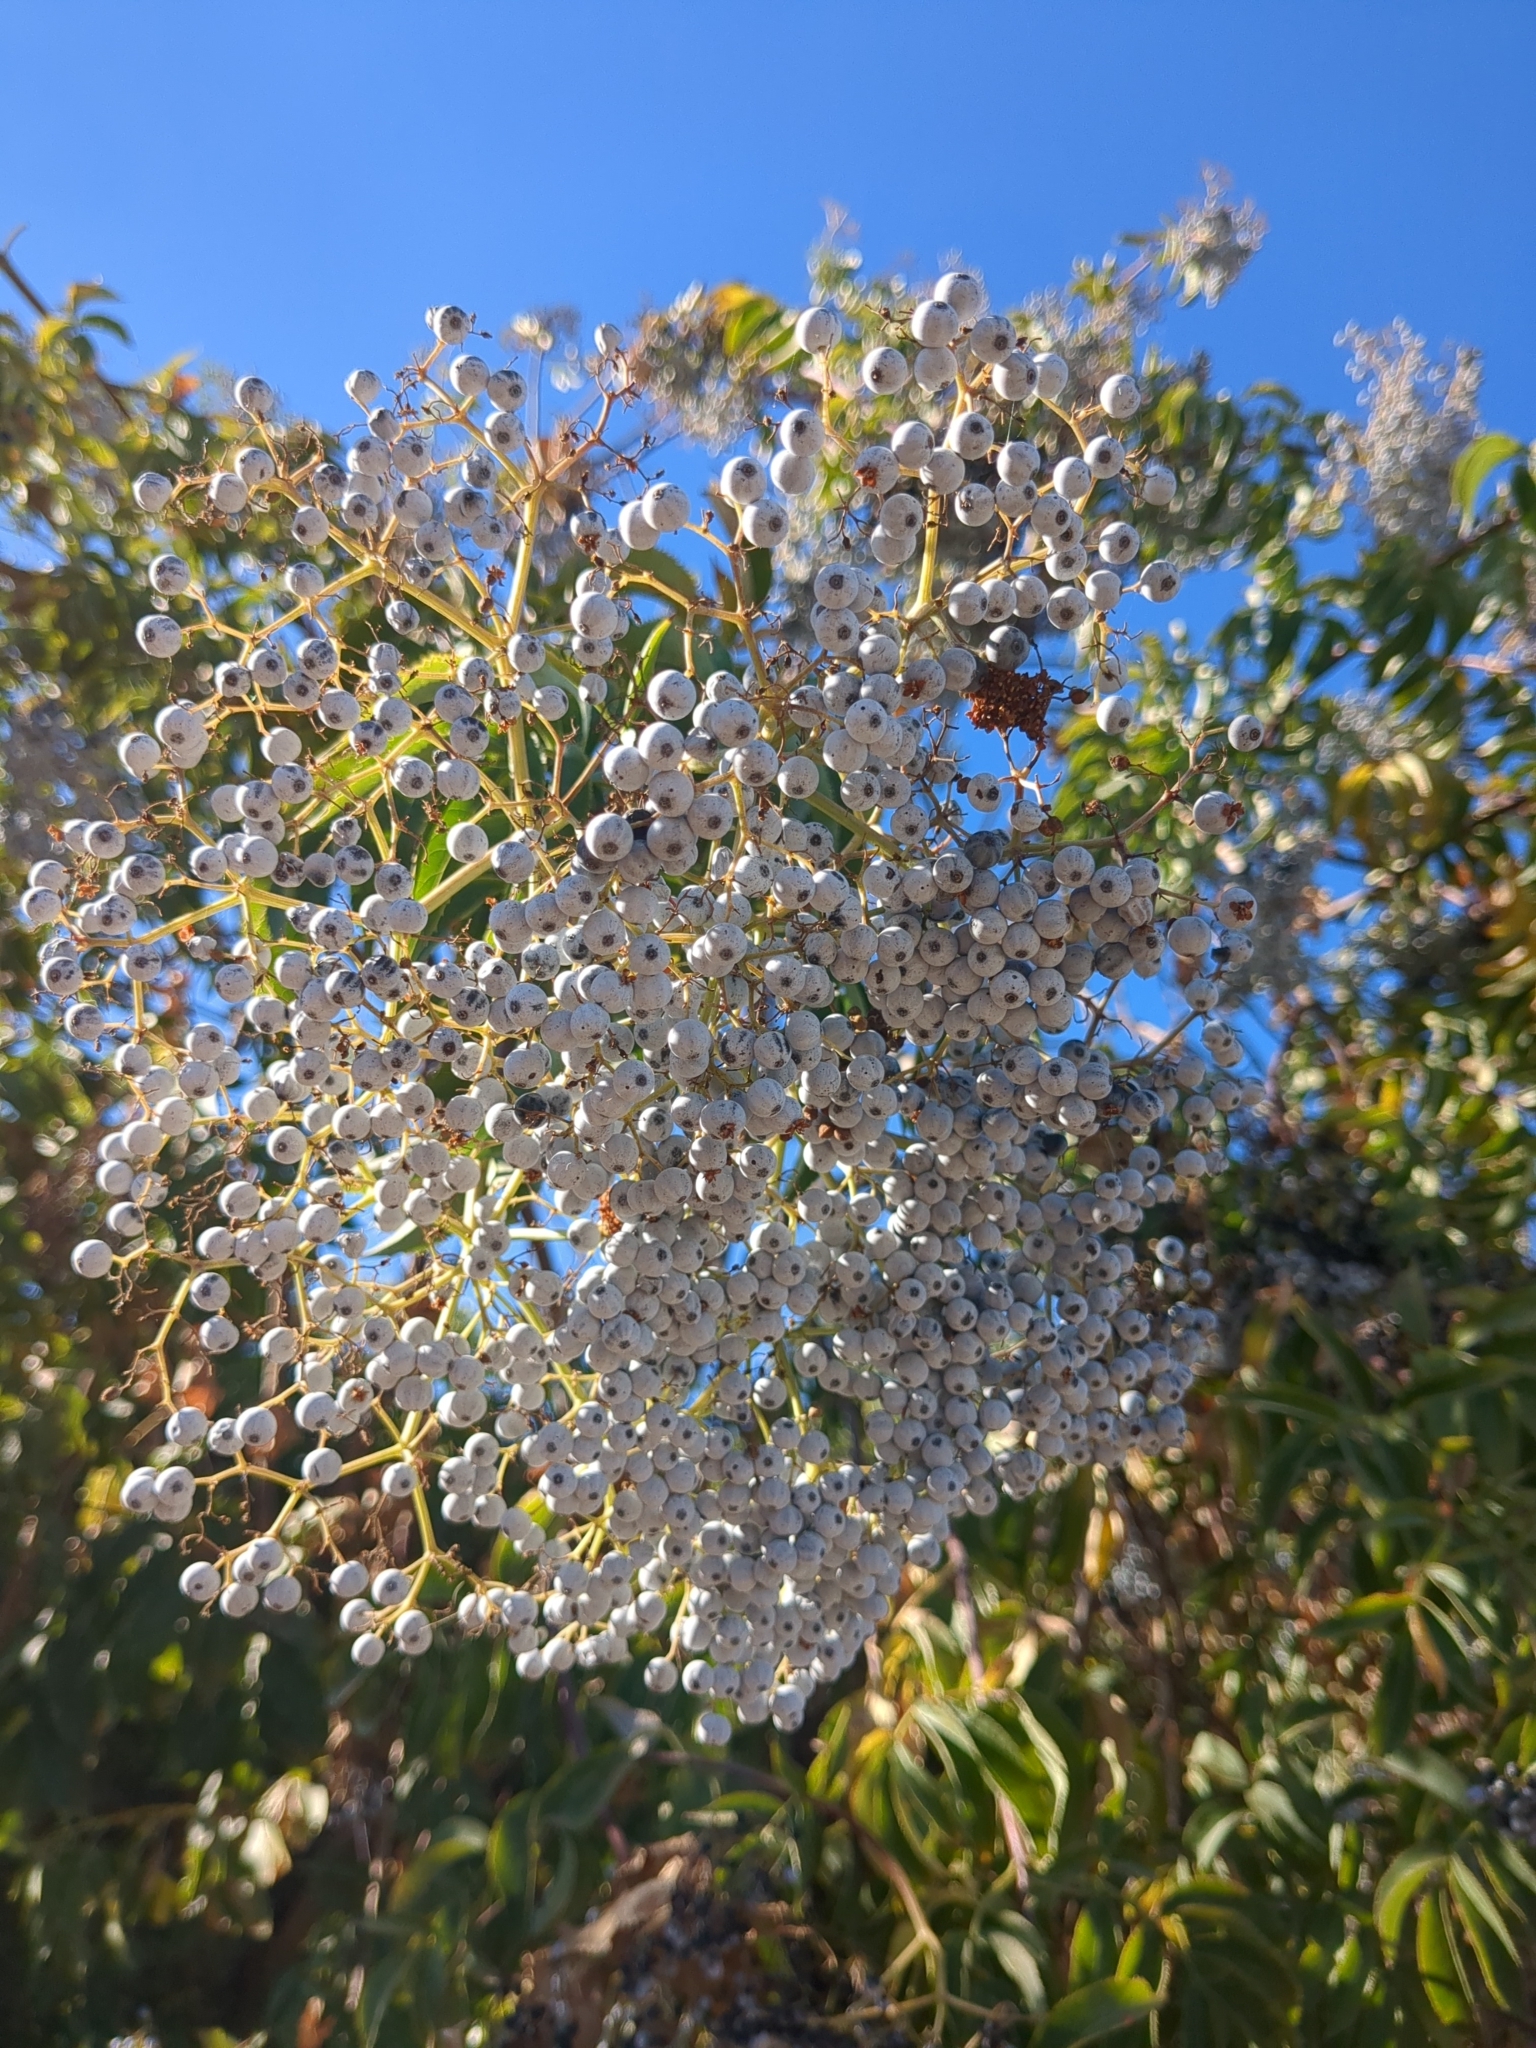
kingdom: Plantae
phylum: Tracheophyta
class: Magnoliopsida
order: Dipsacales
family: Viburnaceae
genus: Sambucus
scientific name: Sambucus cerulea
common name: Blue elder
